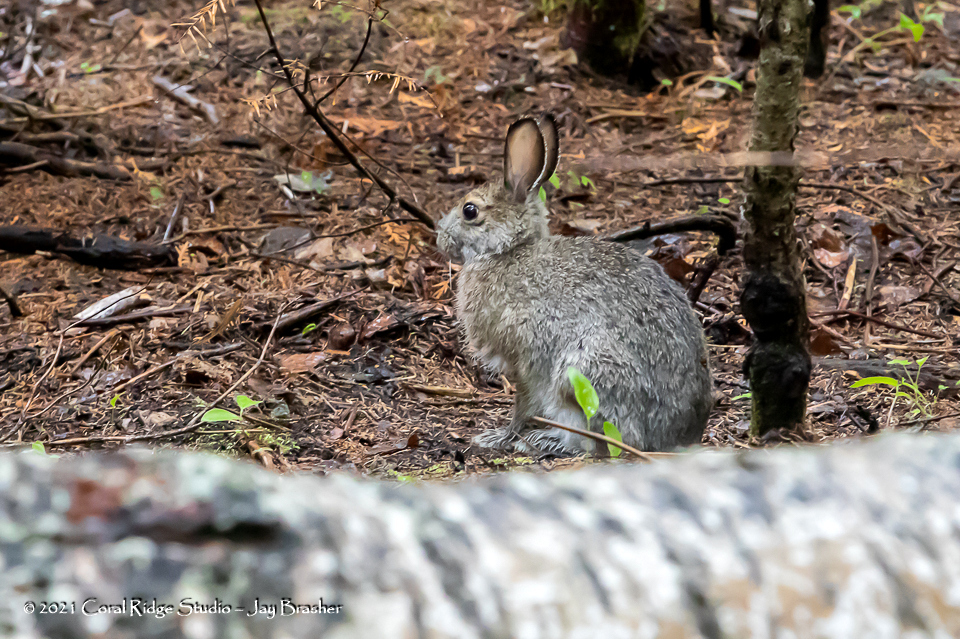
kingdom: Animalia
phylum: Chordata
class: Mammalia
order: Lagomorpha
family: Leporidae
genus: Lepus
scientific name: Lepus americanus
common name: Snowshoe hare
